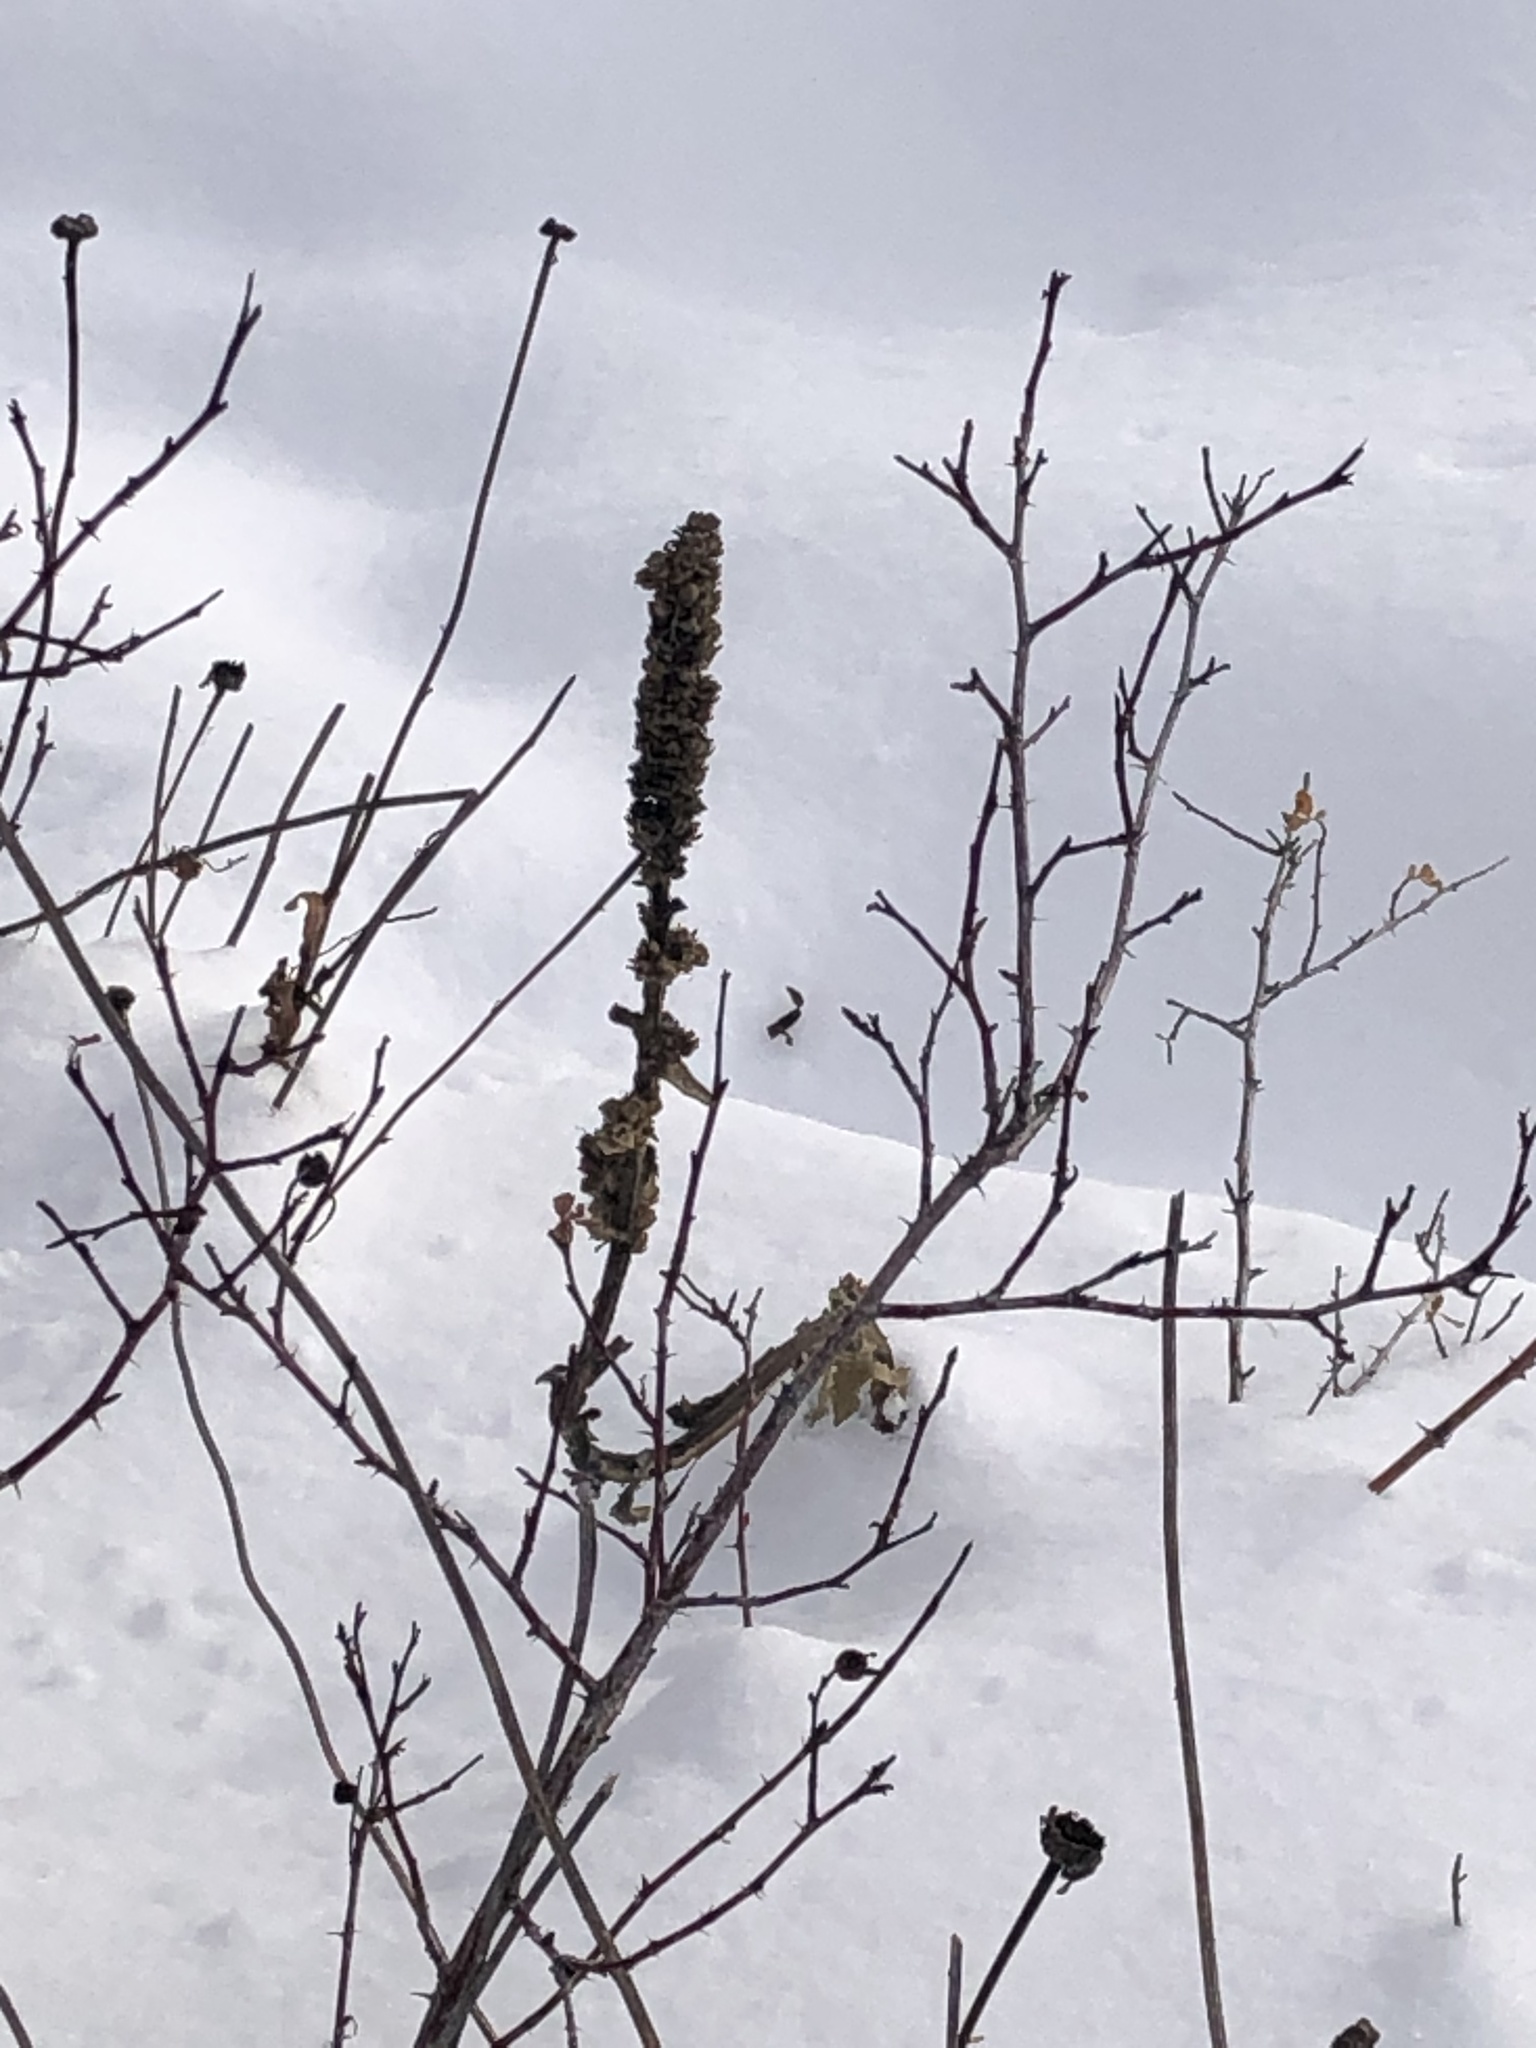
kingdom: Plantae
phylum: Tracheophyta
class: Magnoliopsida
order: Lamiales
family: Scrophulariaceae
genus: Verbascum
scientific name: Verbascum thapsus
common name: Common mullein
